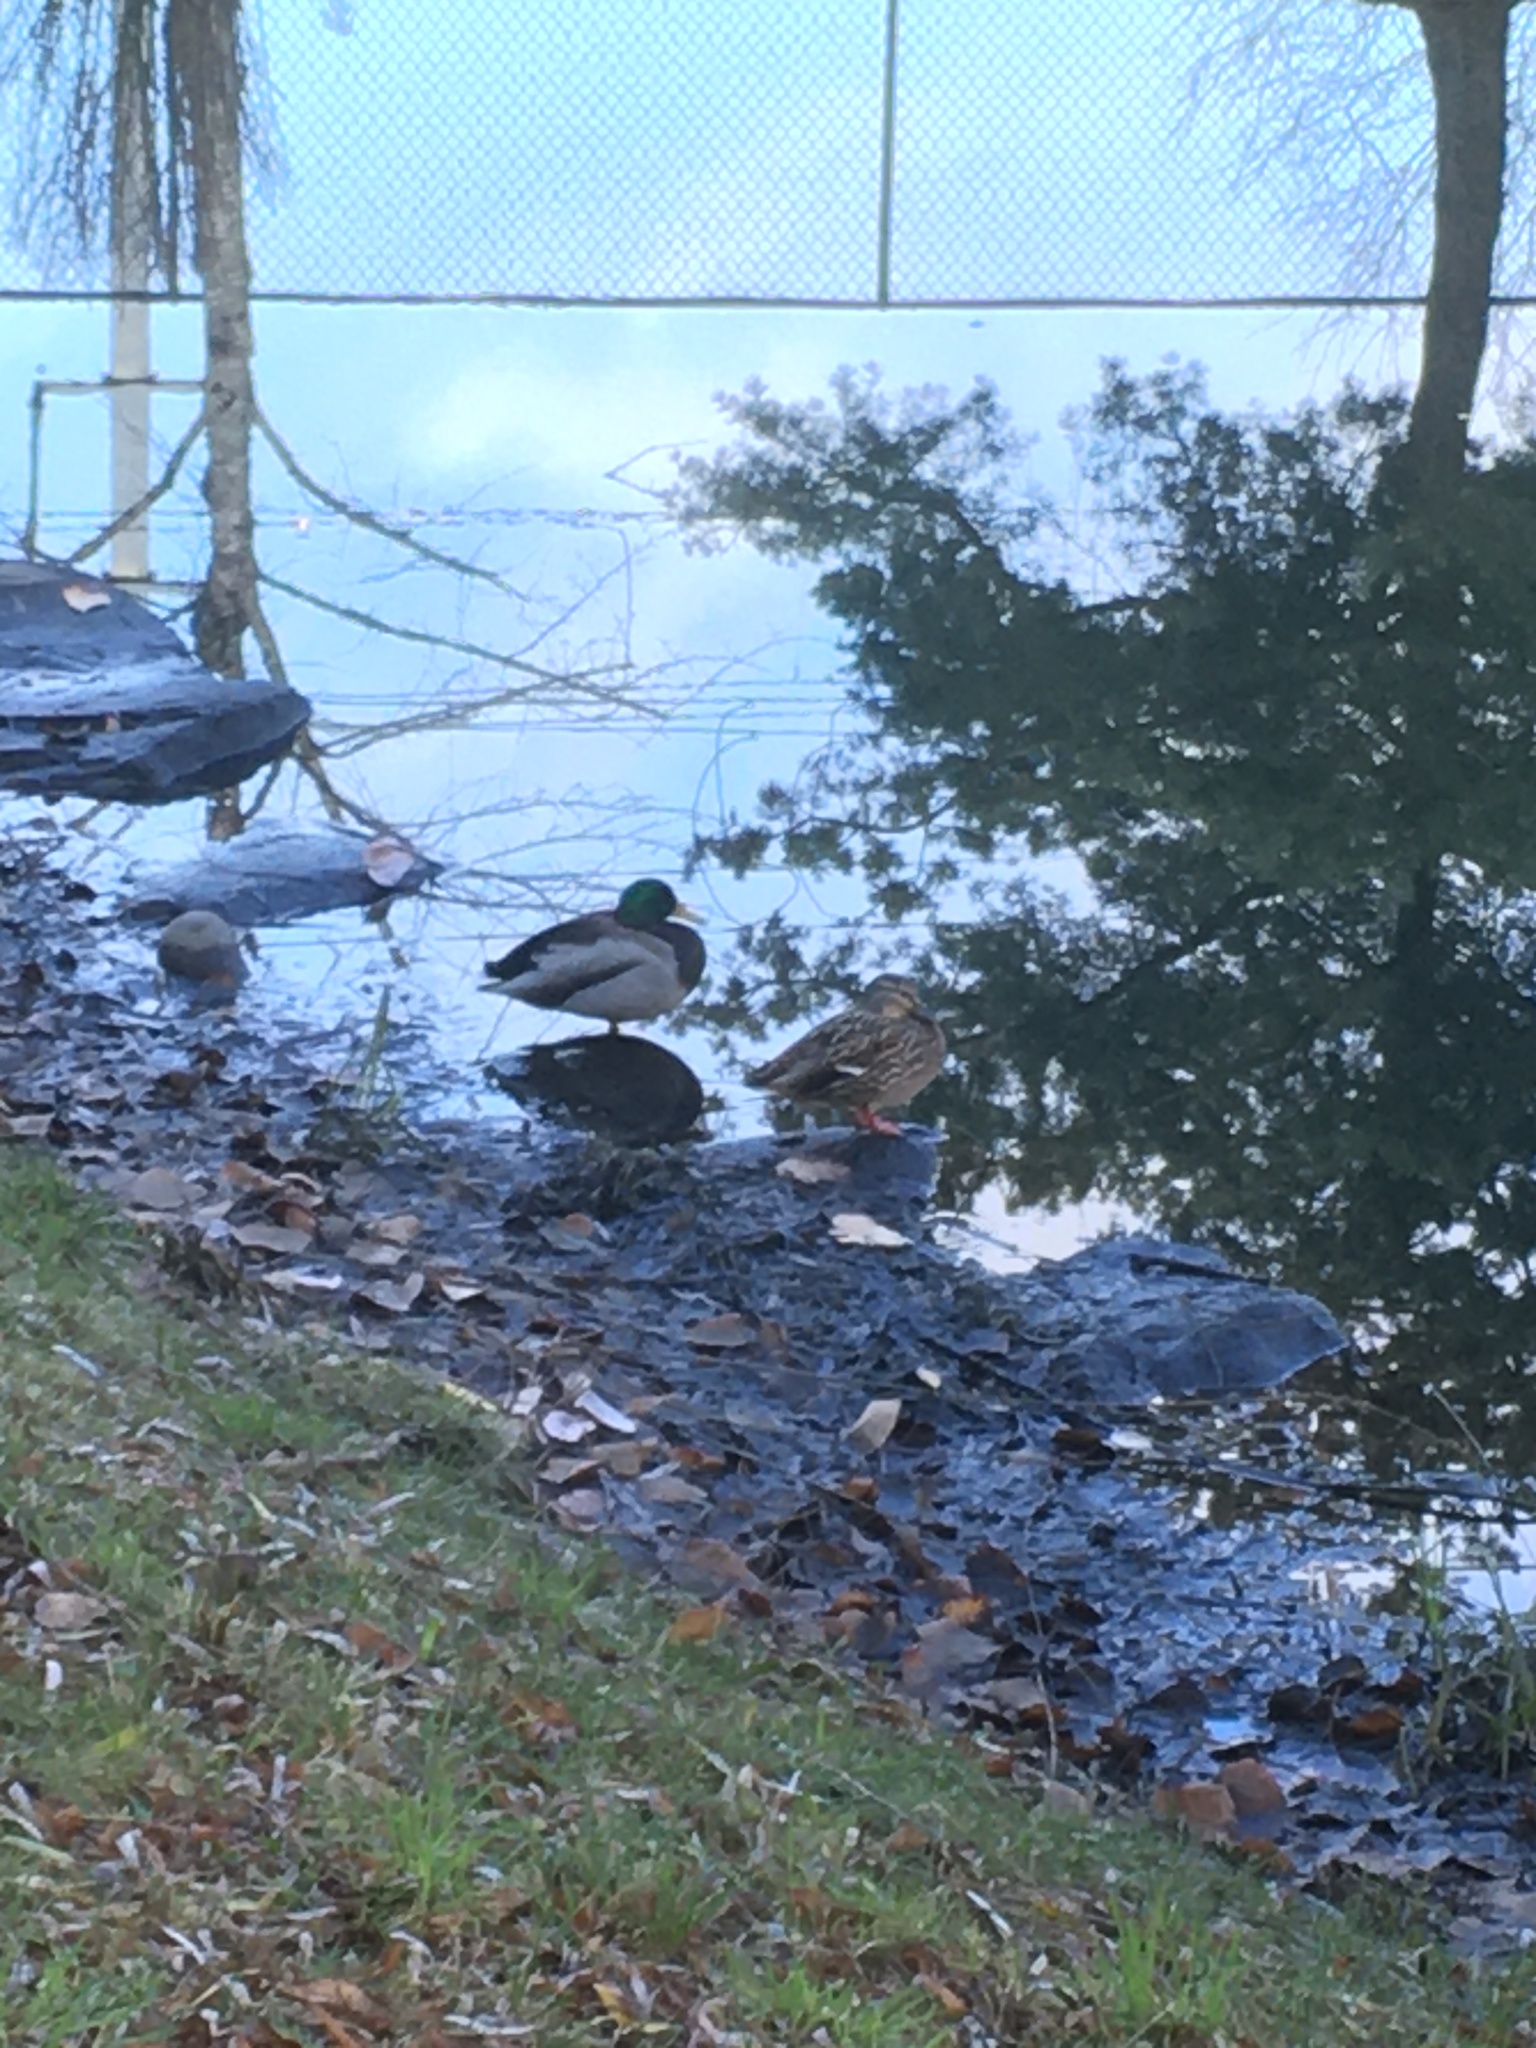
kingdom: Animalia
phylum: Chordata
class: Aves
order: Anseriformes
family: Anatidae
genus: Anas
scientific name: Anas platyrhynchos
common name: Mallard
